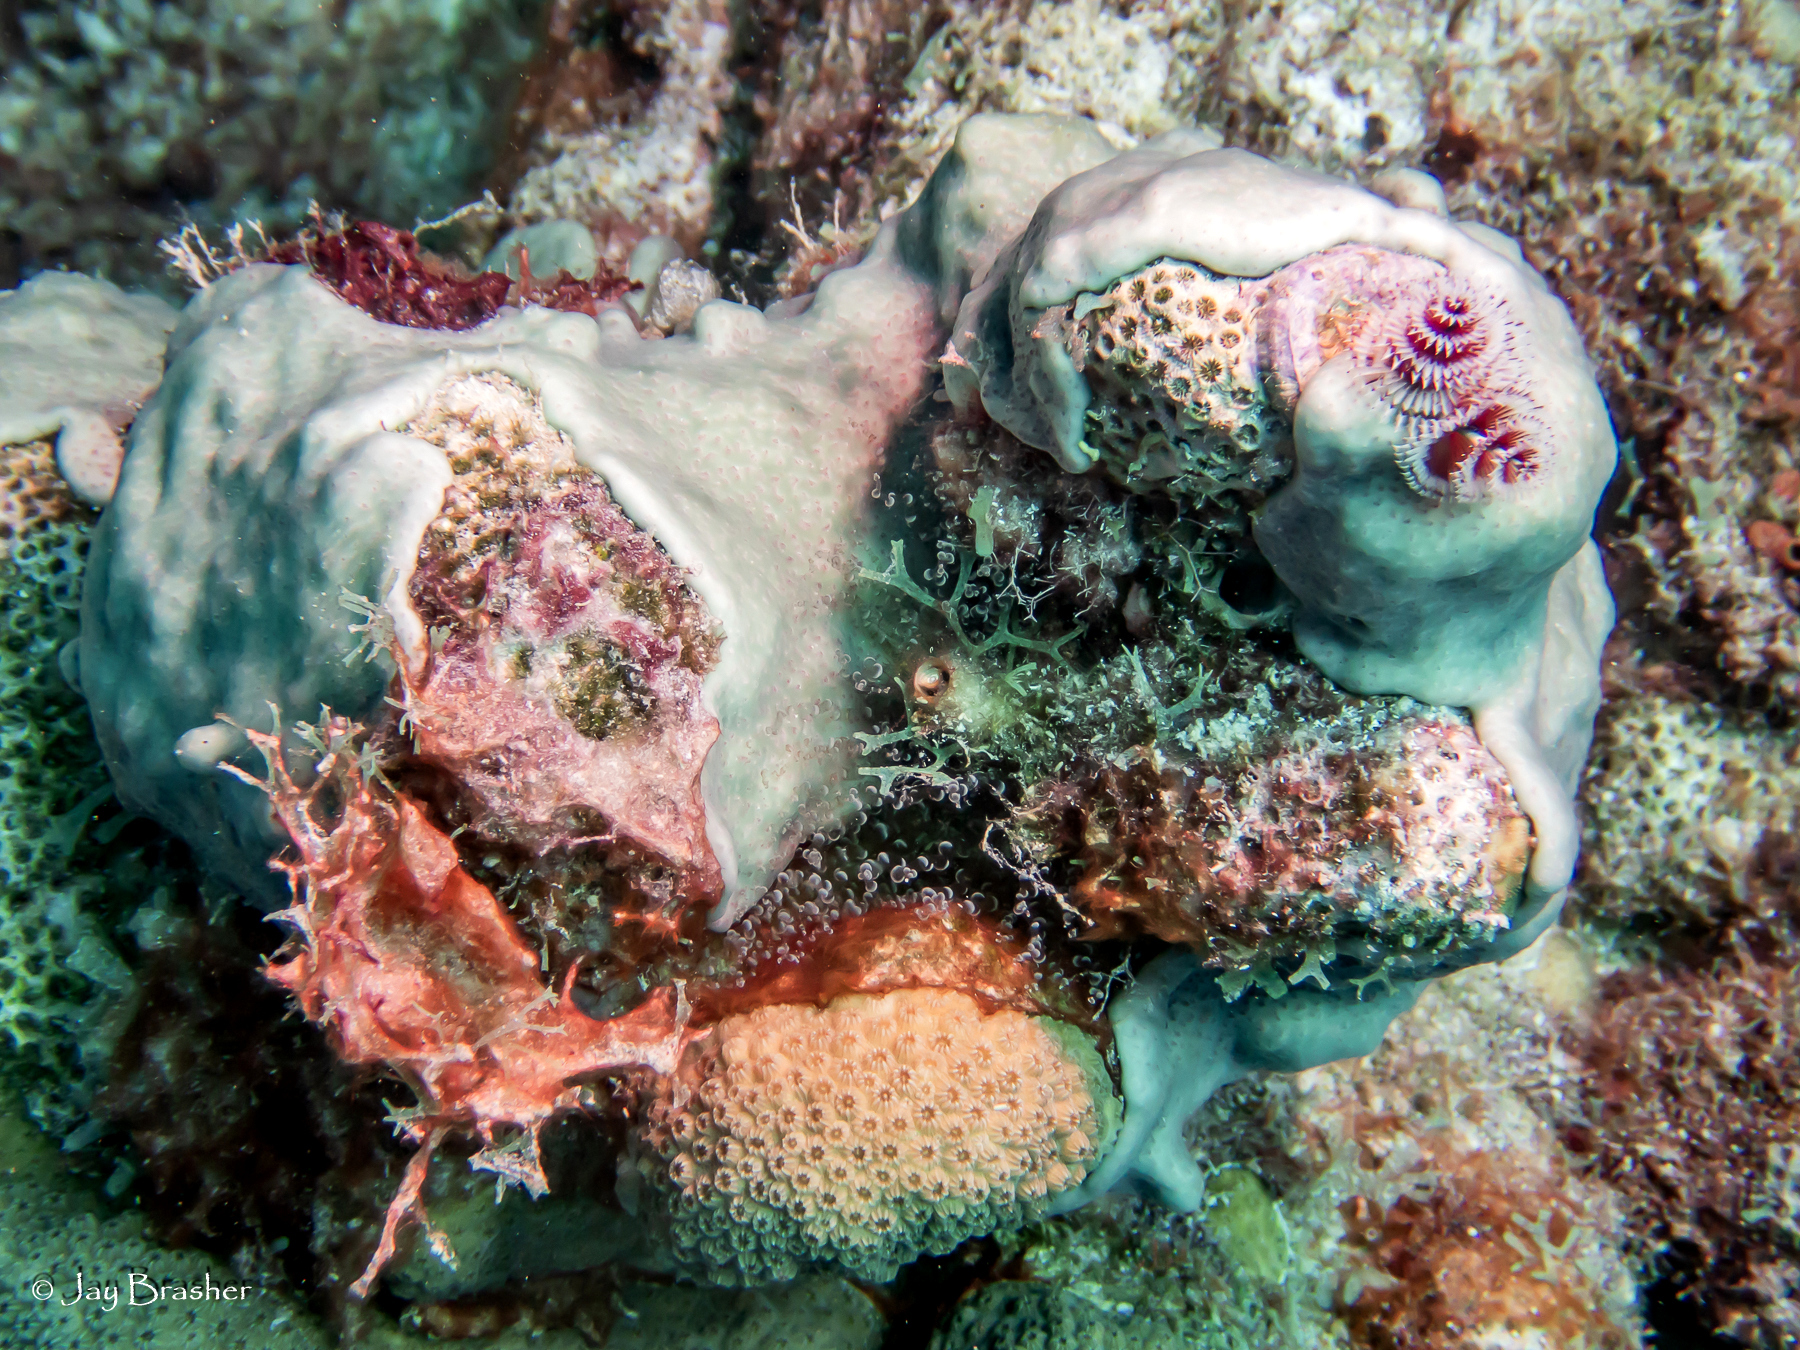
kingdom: Animalia
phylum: Chordata
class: Ascidiacea
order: Aplousobranchia
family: Didemnidae
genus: Trididemnum
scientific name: Trididemnum solidum
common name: Overgrowing mat tunicate
